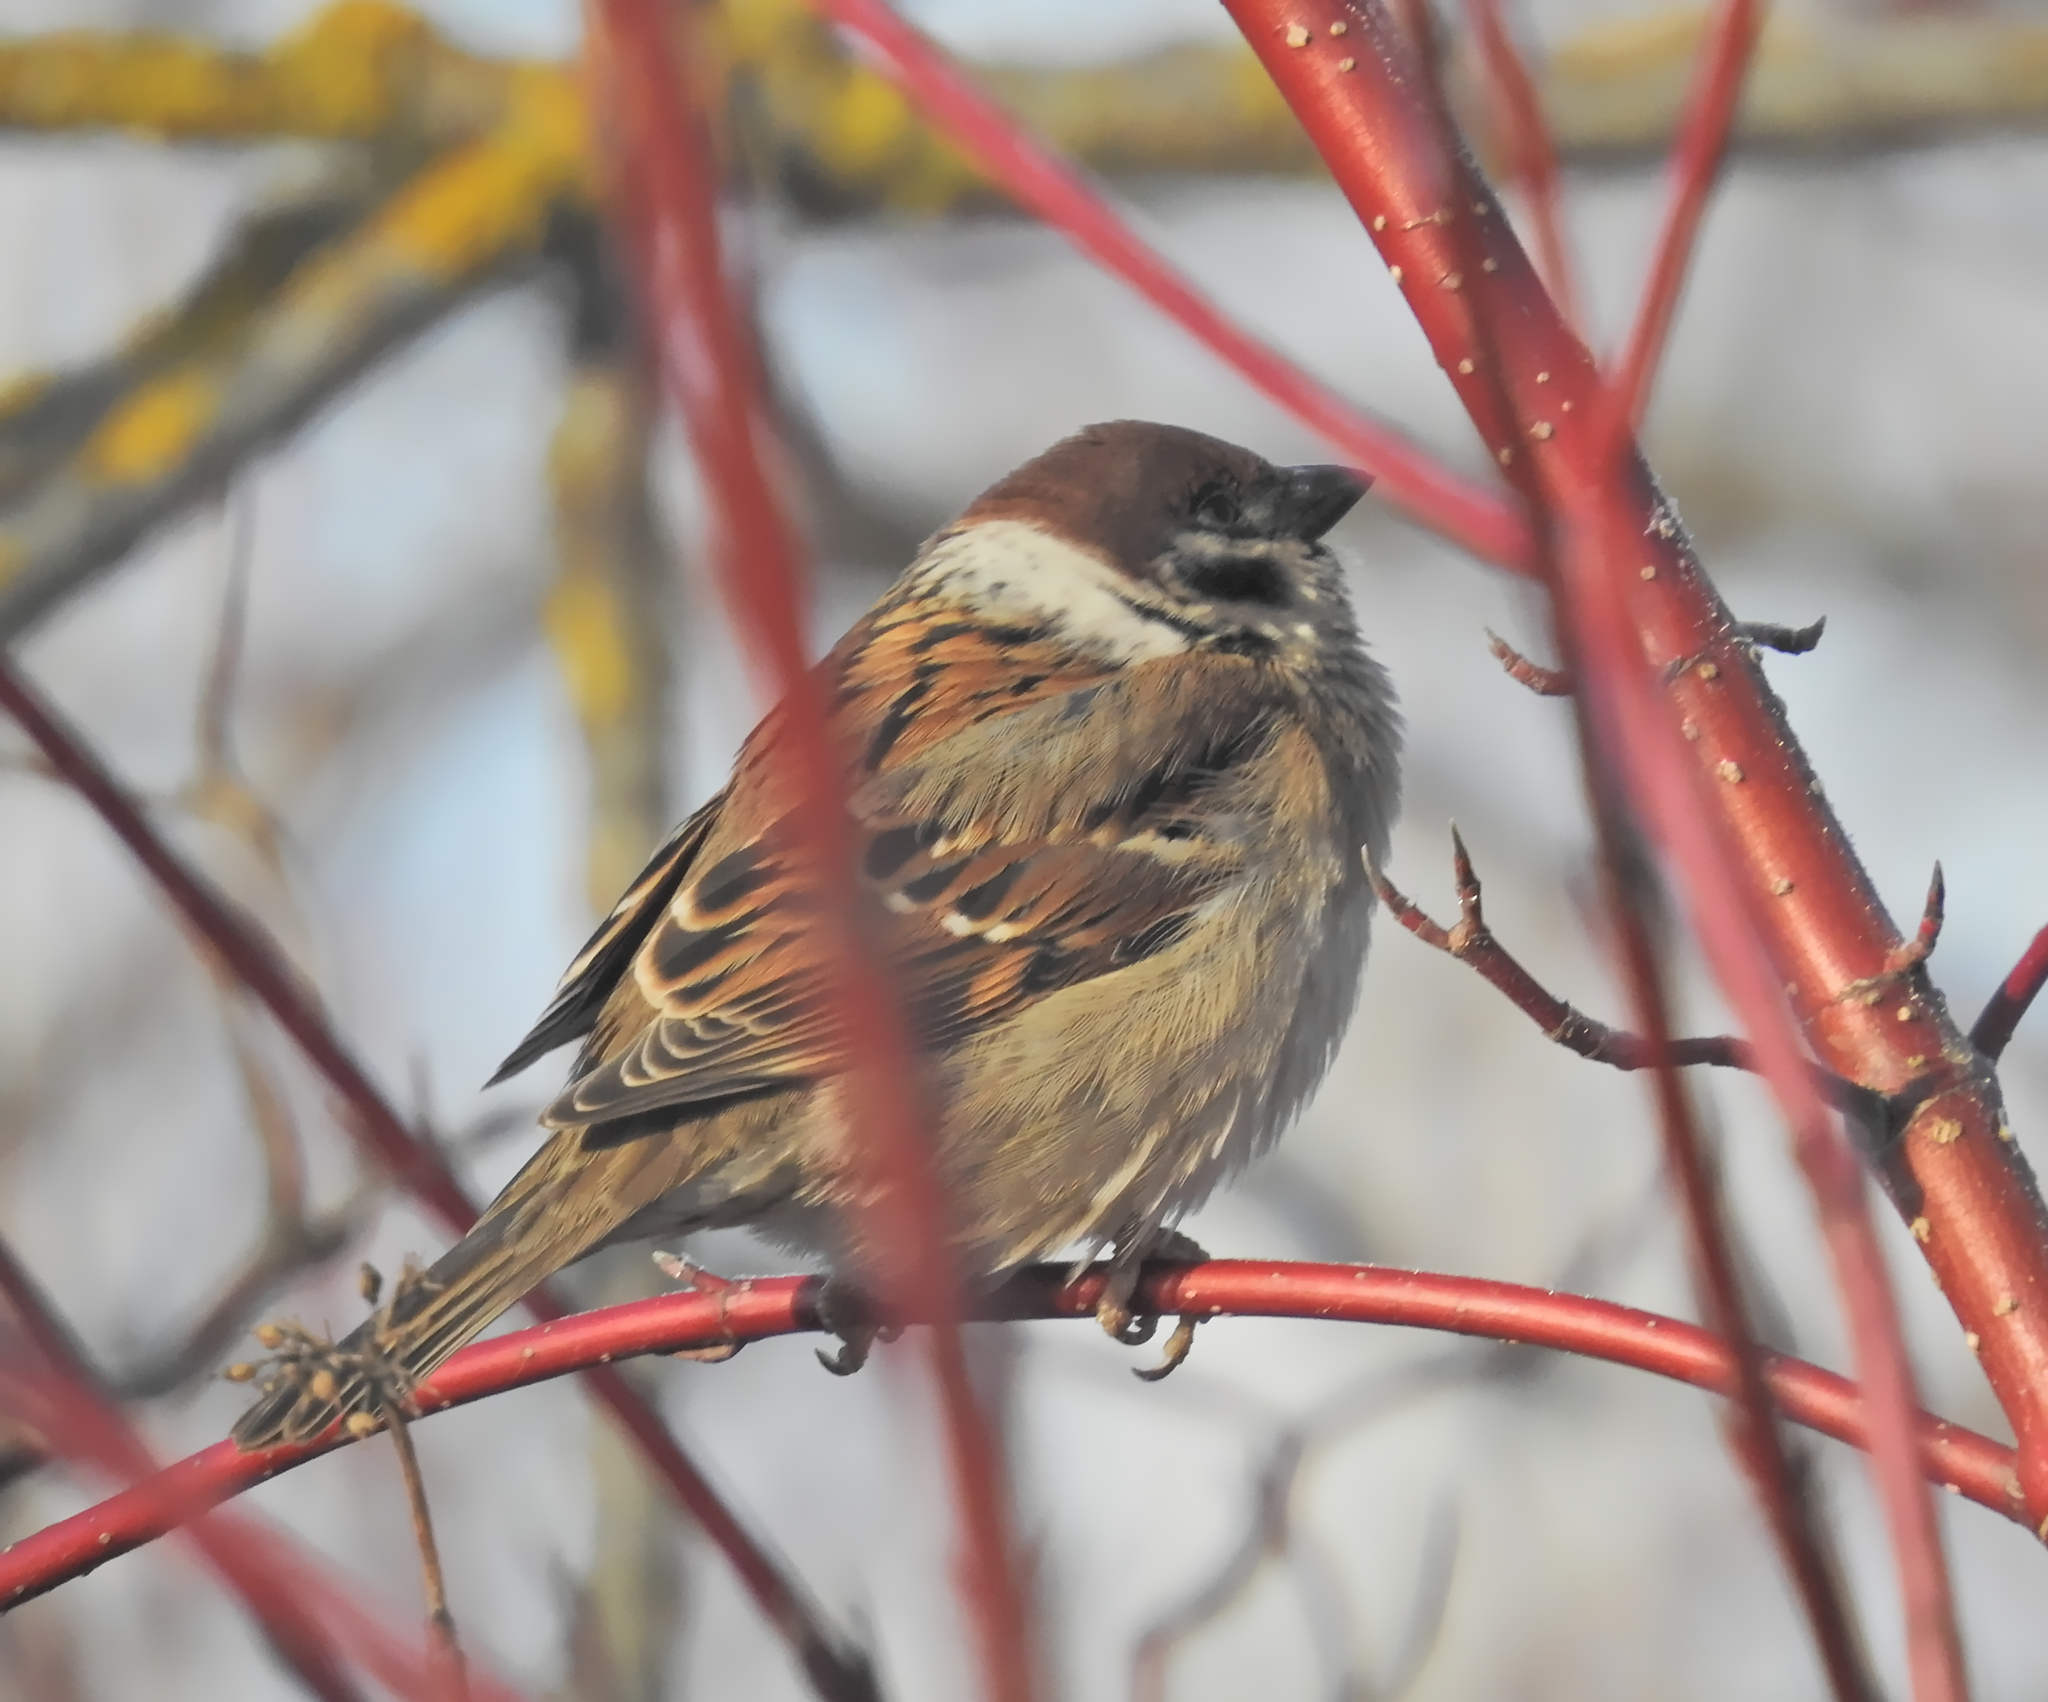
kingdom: Animalia
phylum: Chordata
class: Aves
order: Passeriformes
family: Passeridae
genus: Passer
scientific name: Passer montanus
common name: Eurasian tree sparrow
